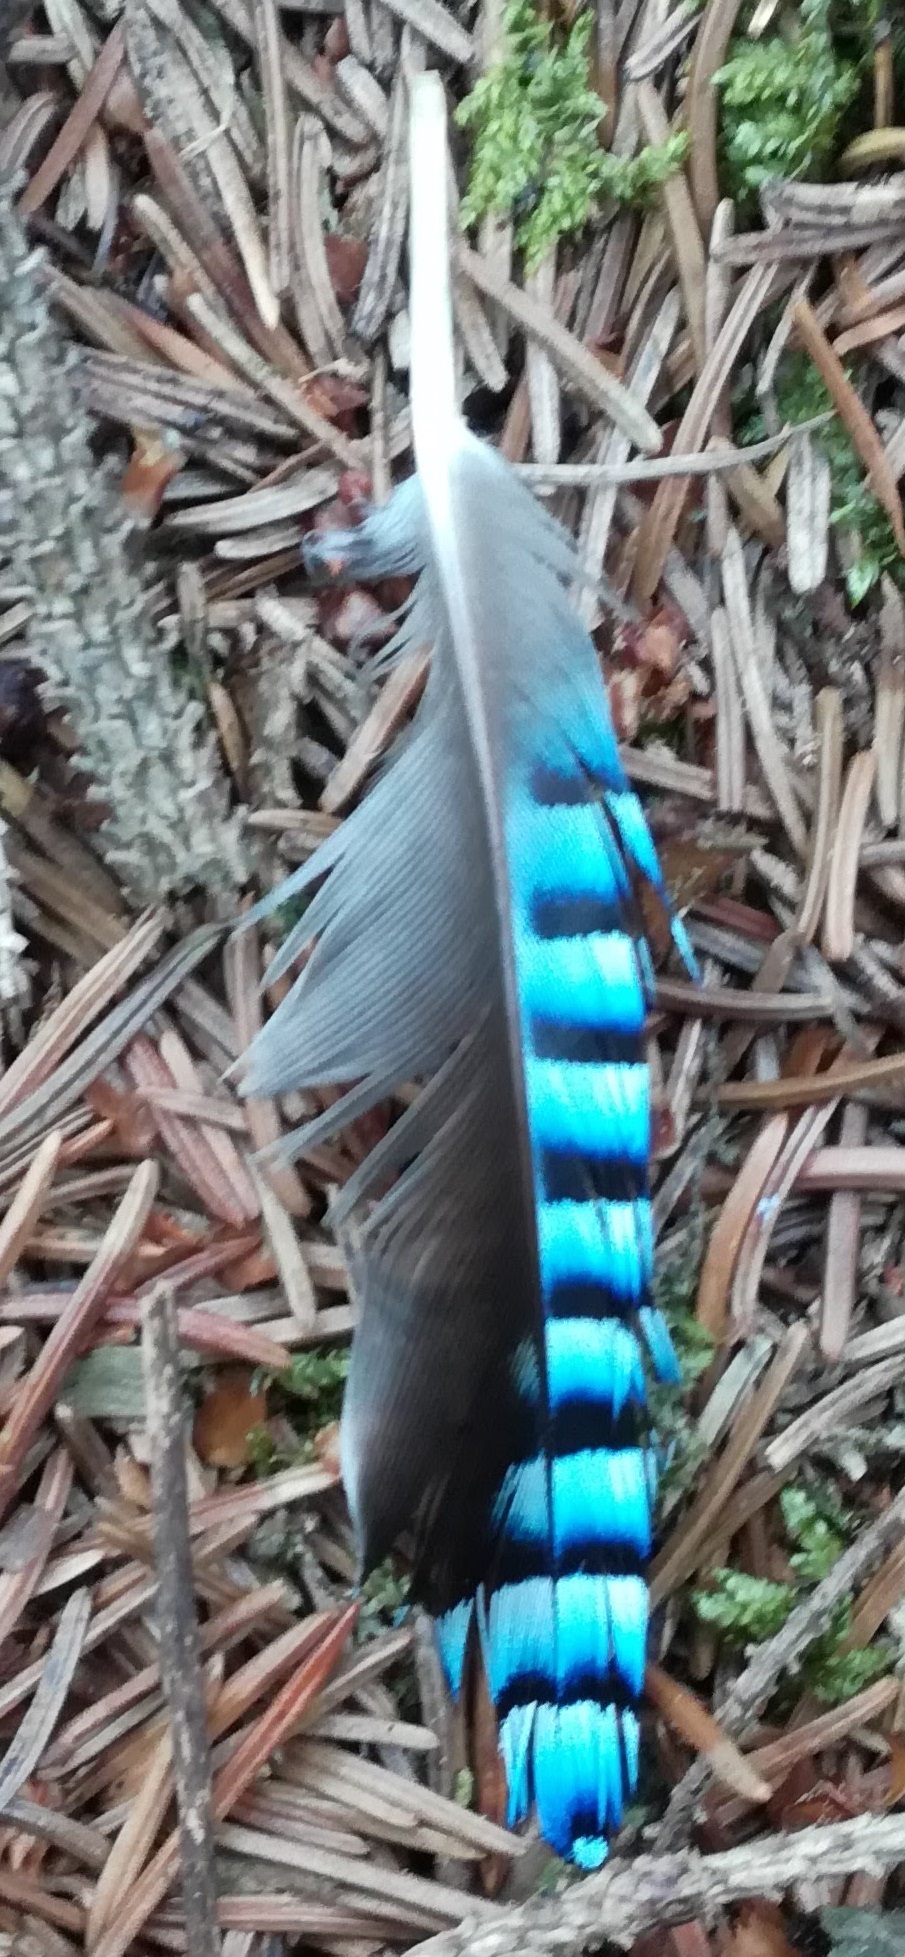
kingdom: Animalia
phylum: Chordata
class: Aves
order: Passeriformes
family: Corvidae
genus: Garrulus
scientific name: Garrulus glandarius
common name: Eurasian jay
